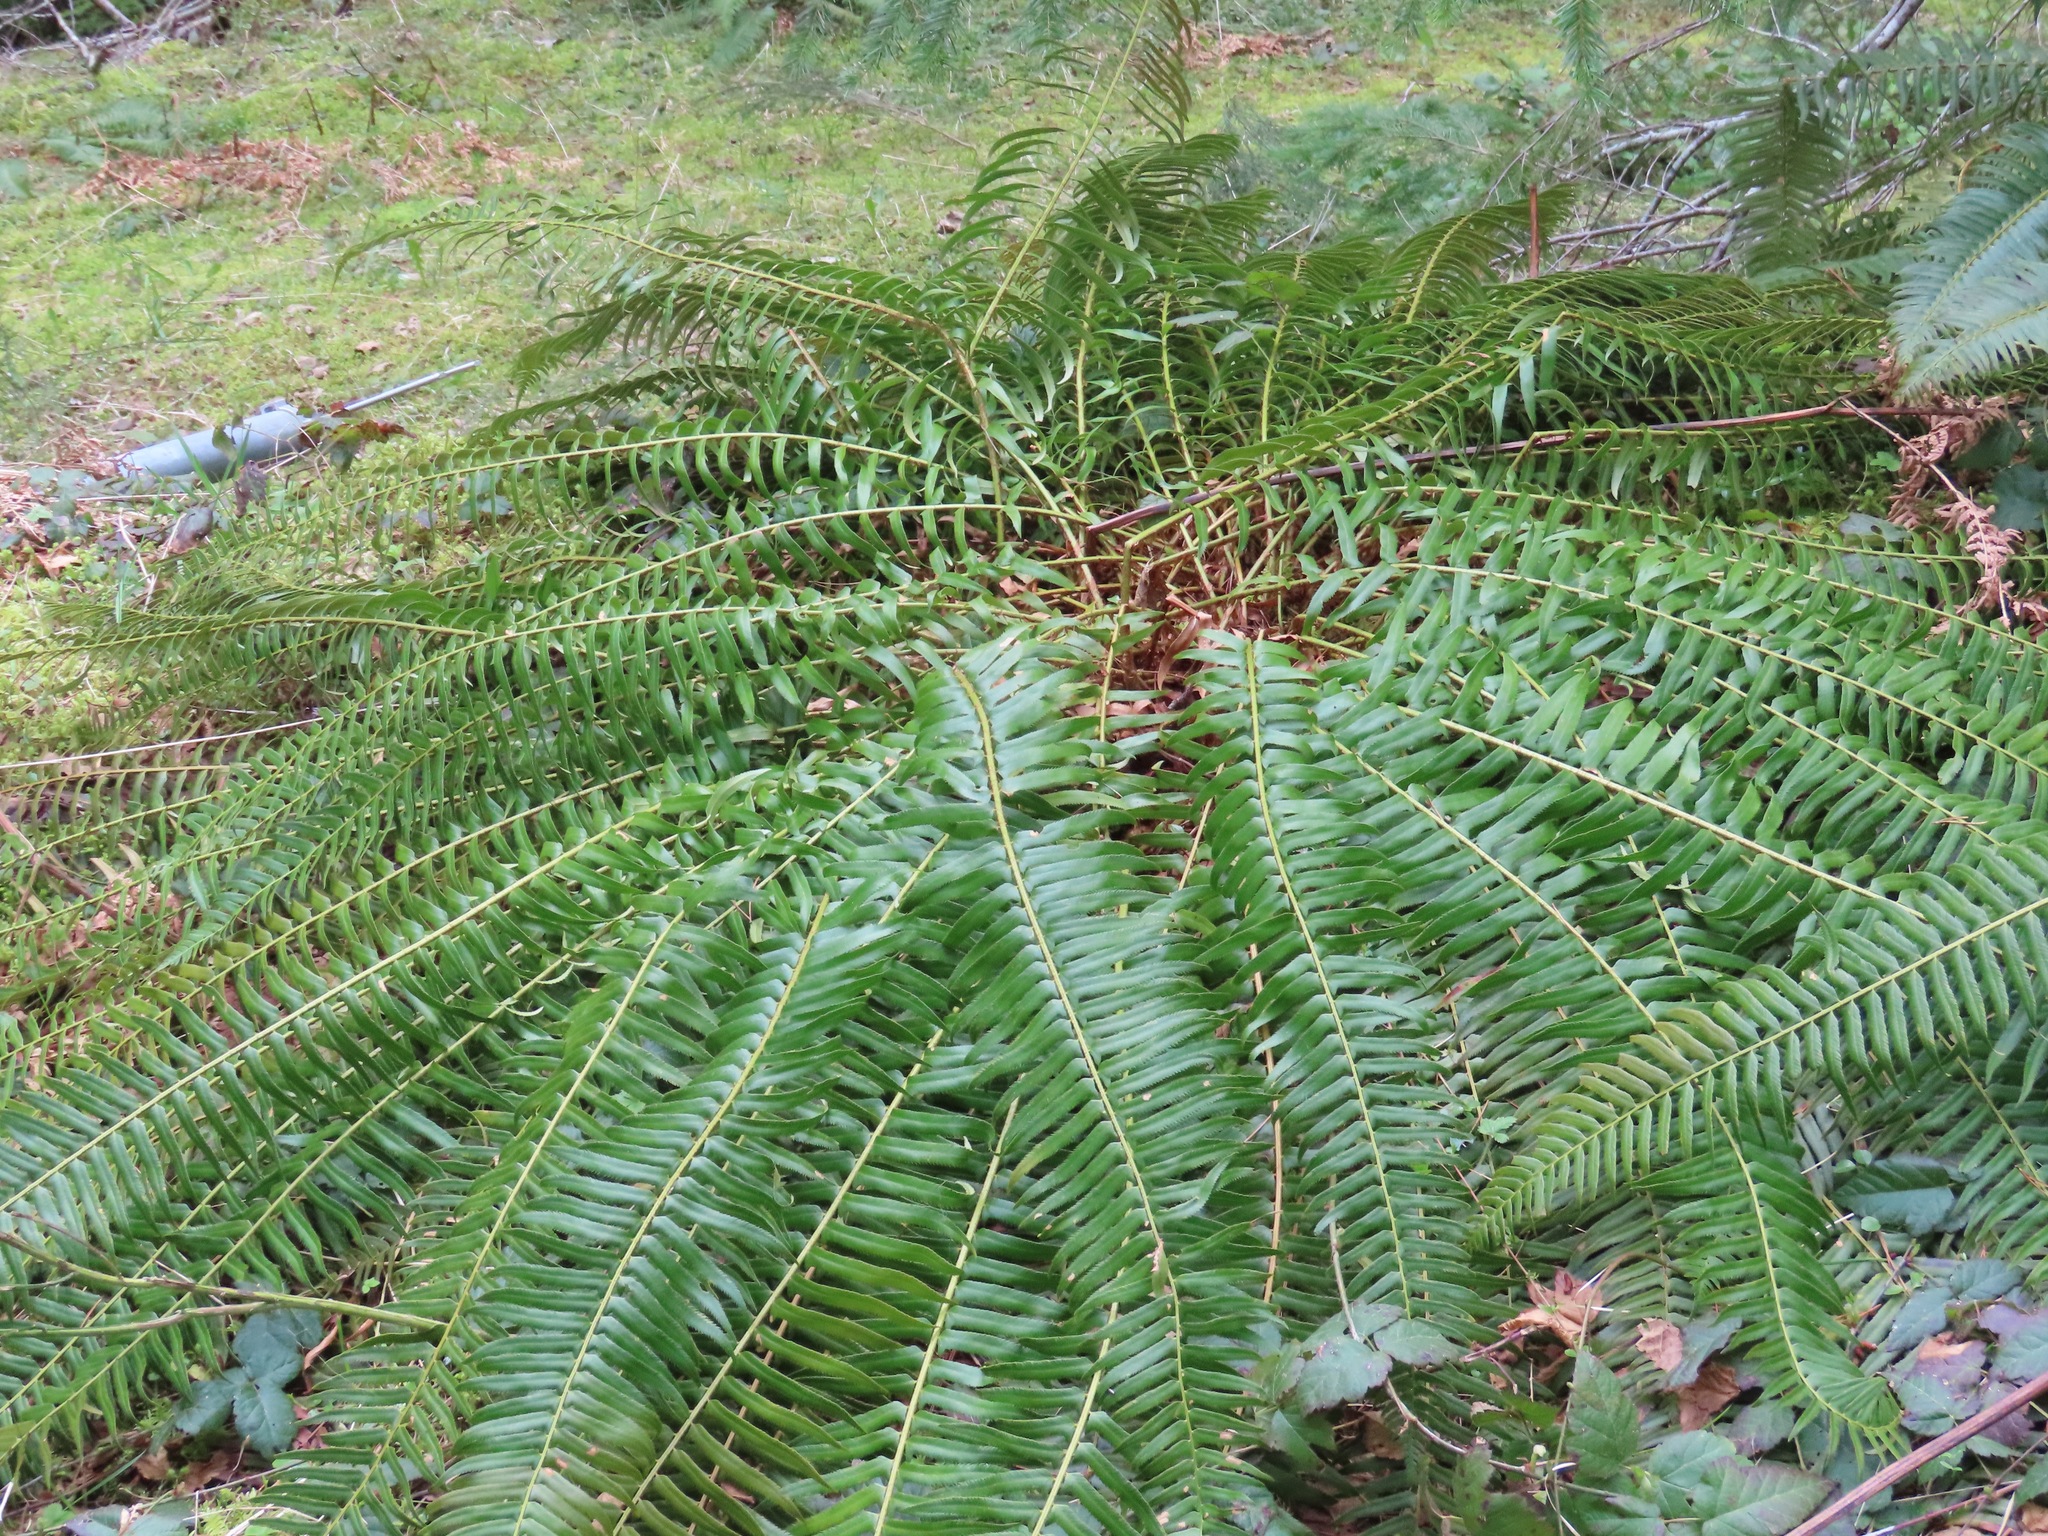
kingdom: Plantae
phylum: Tracheophyta
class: Polypodiopsida
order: Polypodiales
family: Dryopteridaceae
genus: Polystichum
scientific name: Polystichum munitum
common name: Western sword-fern
